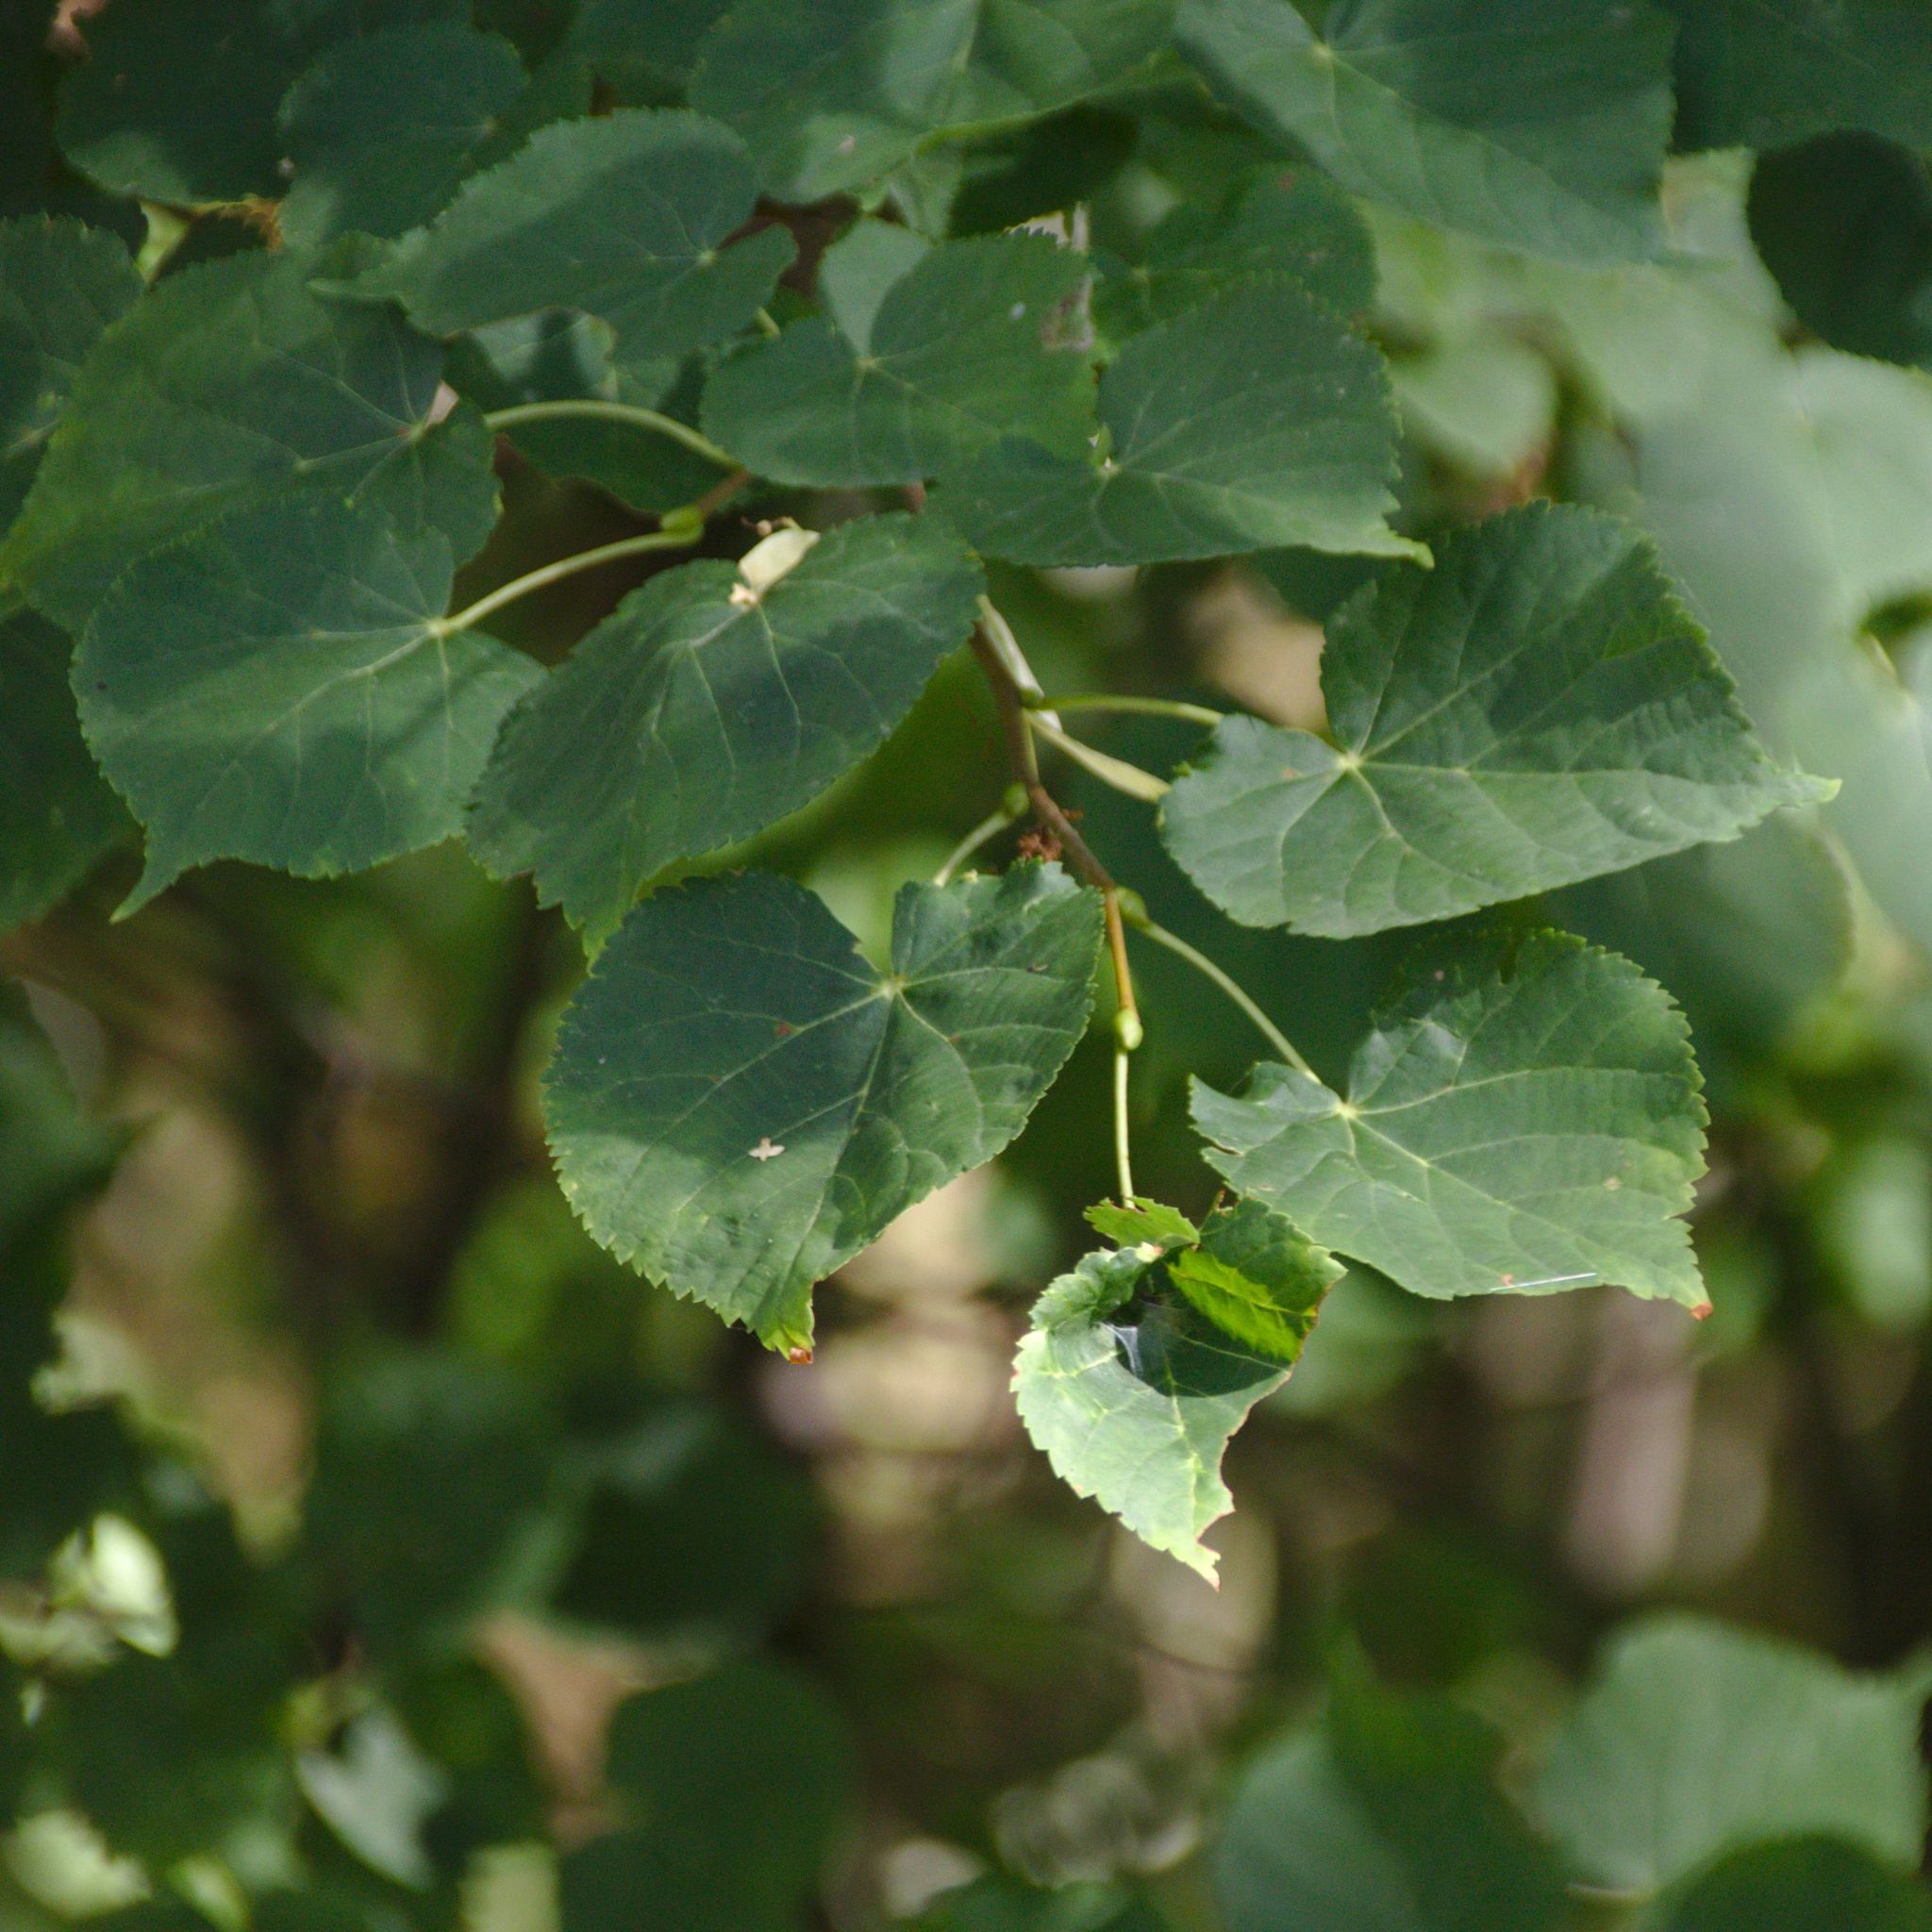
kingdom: Plantae
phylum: Tracheophyta
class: Magnoliopsida
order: Malvales
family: Malvaceae
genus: Tilia
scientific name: Tilia cordata
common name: Small-leaved lime
